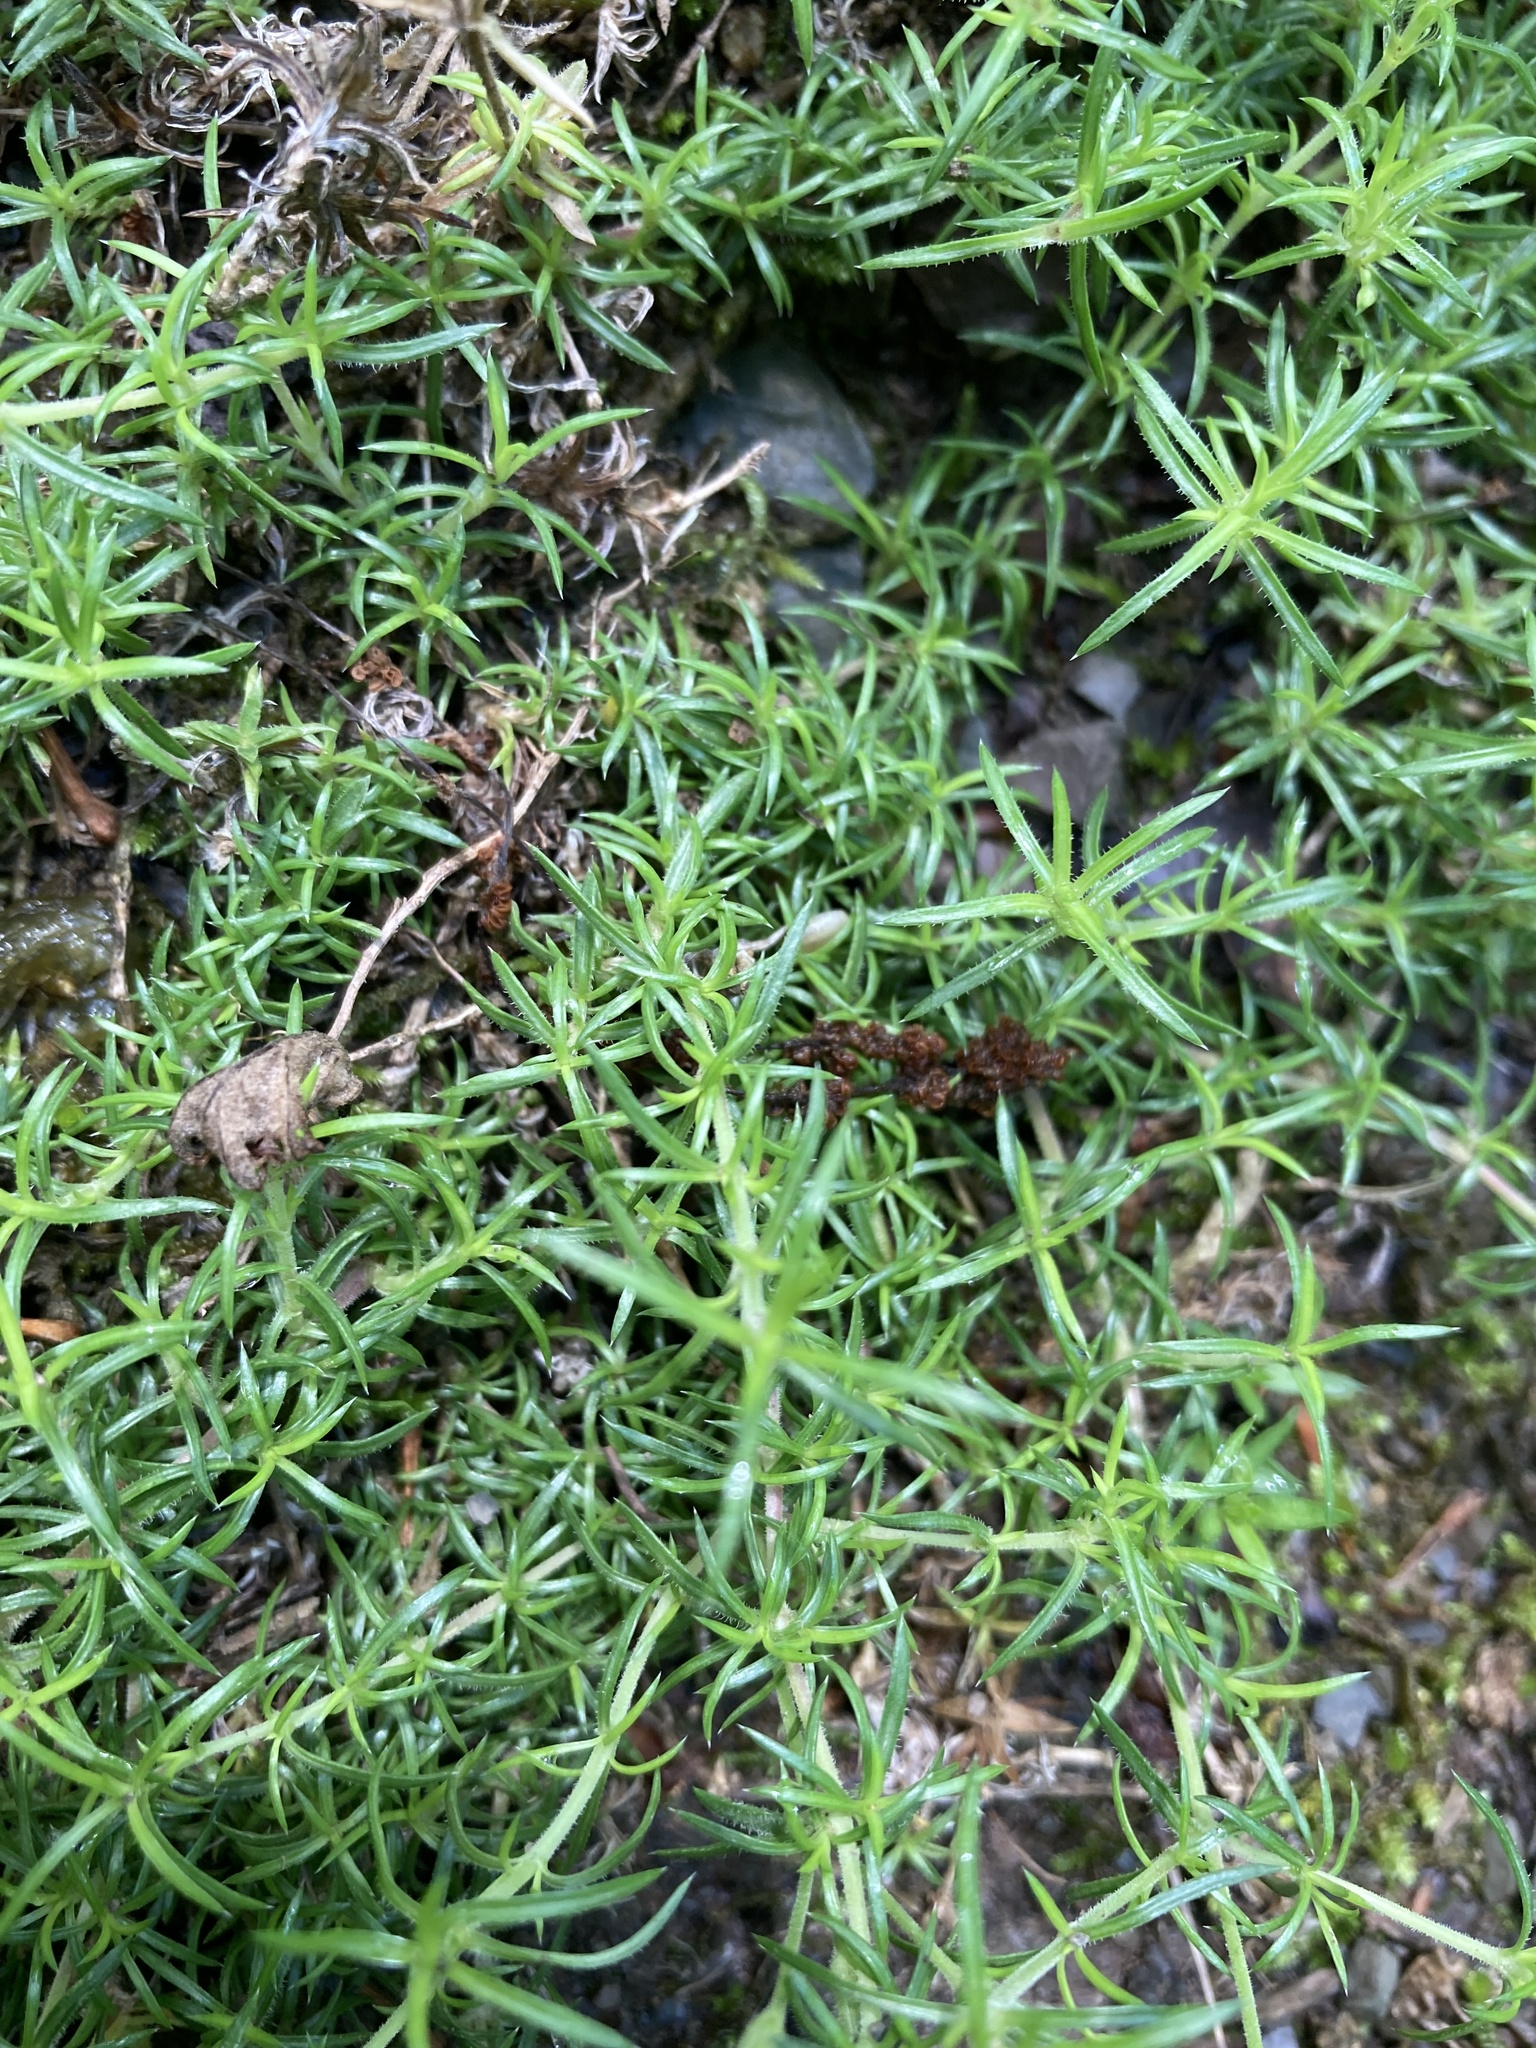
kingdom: Plantae
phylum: Tracheophyta
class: Magnoliopsida
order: Ericales
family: Polemoniaceae
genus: Phlox
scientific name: Phlox subulata
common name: Moss phlox
